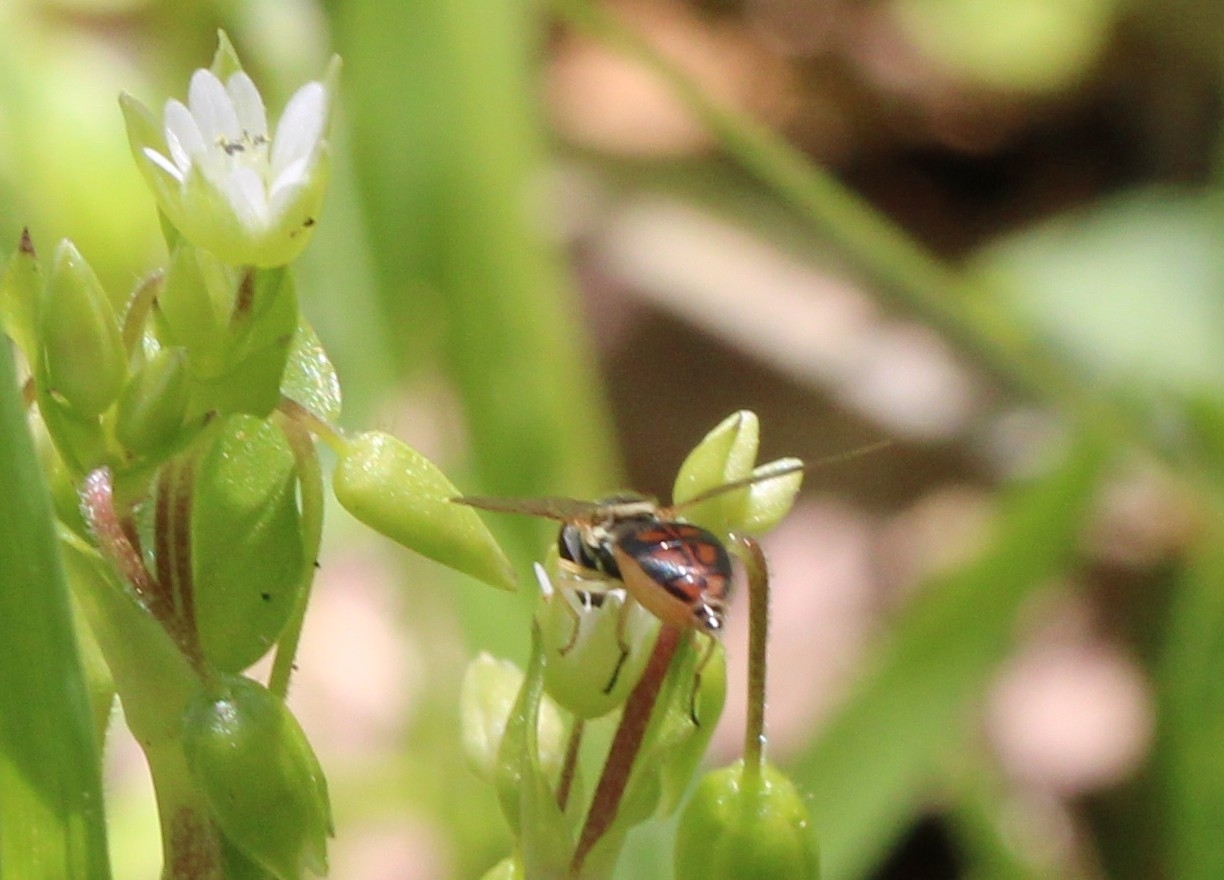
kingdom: Animalia
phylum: Arthropoda
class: Insecta
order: Diptera
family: Syrphidae
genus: Toxomerus
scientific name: Toxomerus marginatus
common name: Syrphid fly
